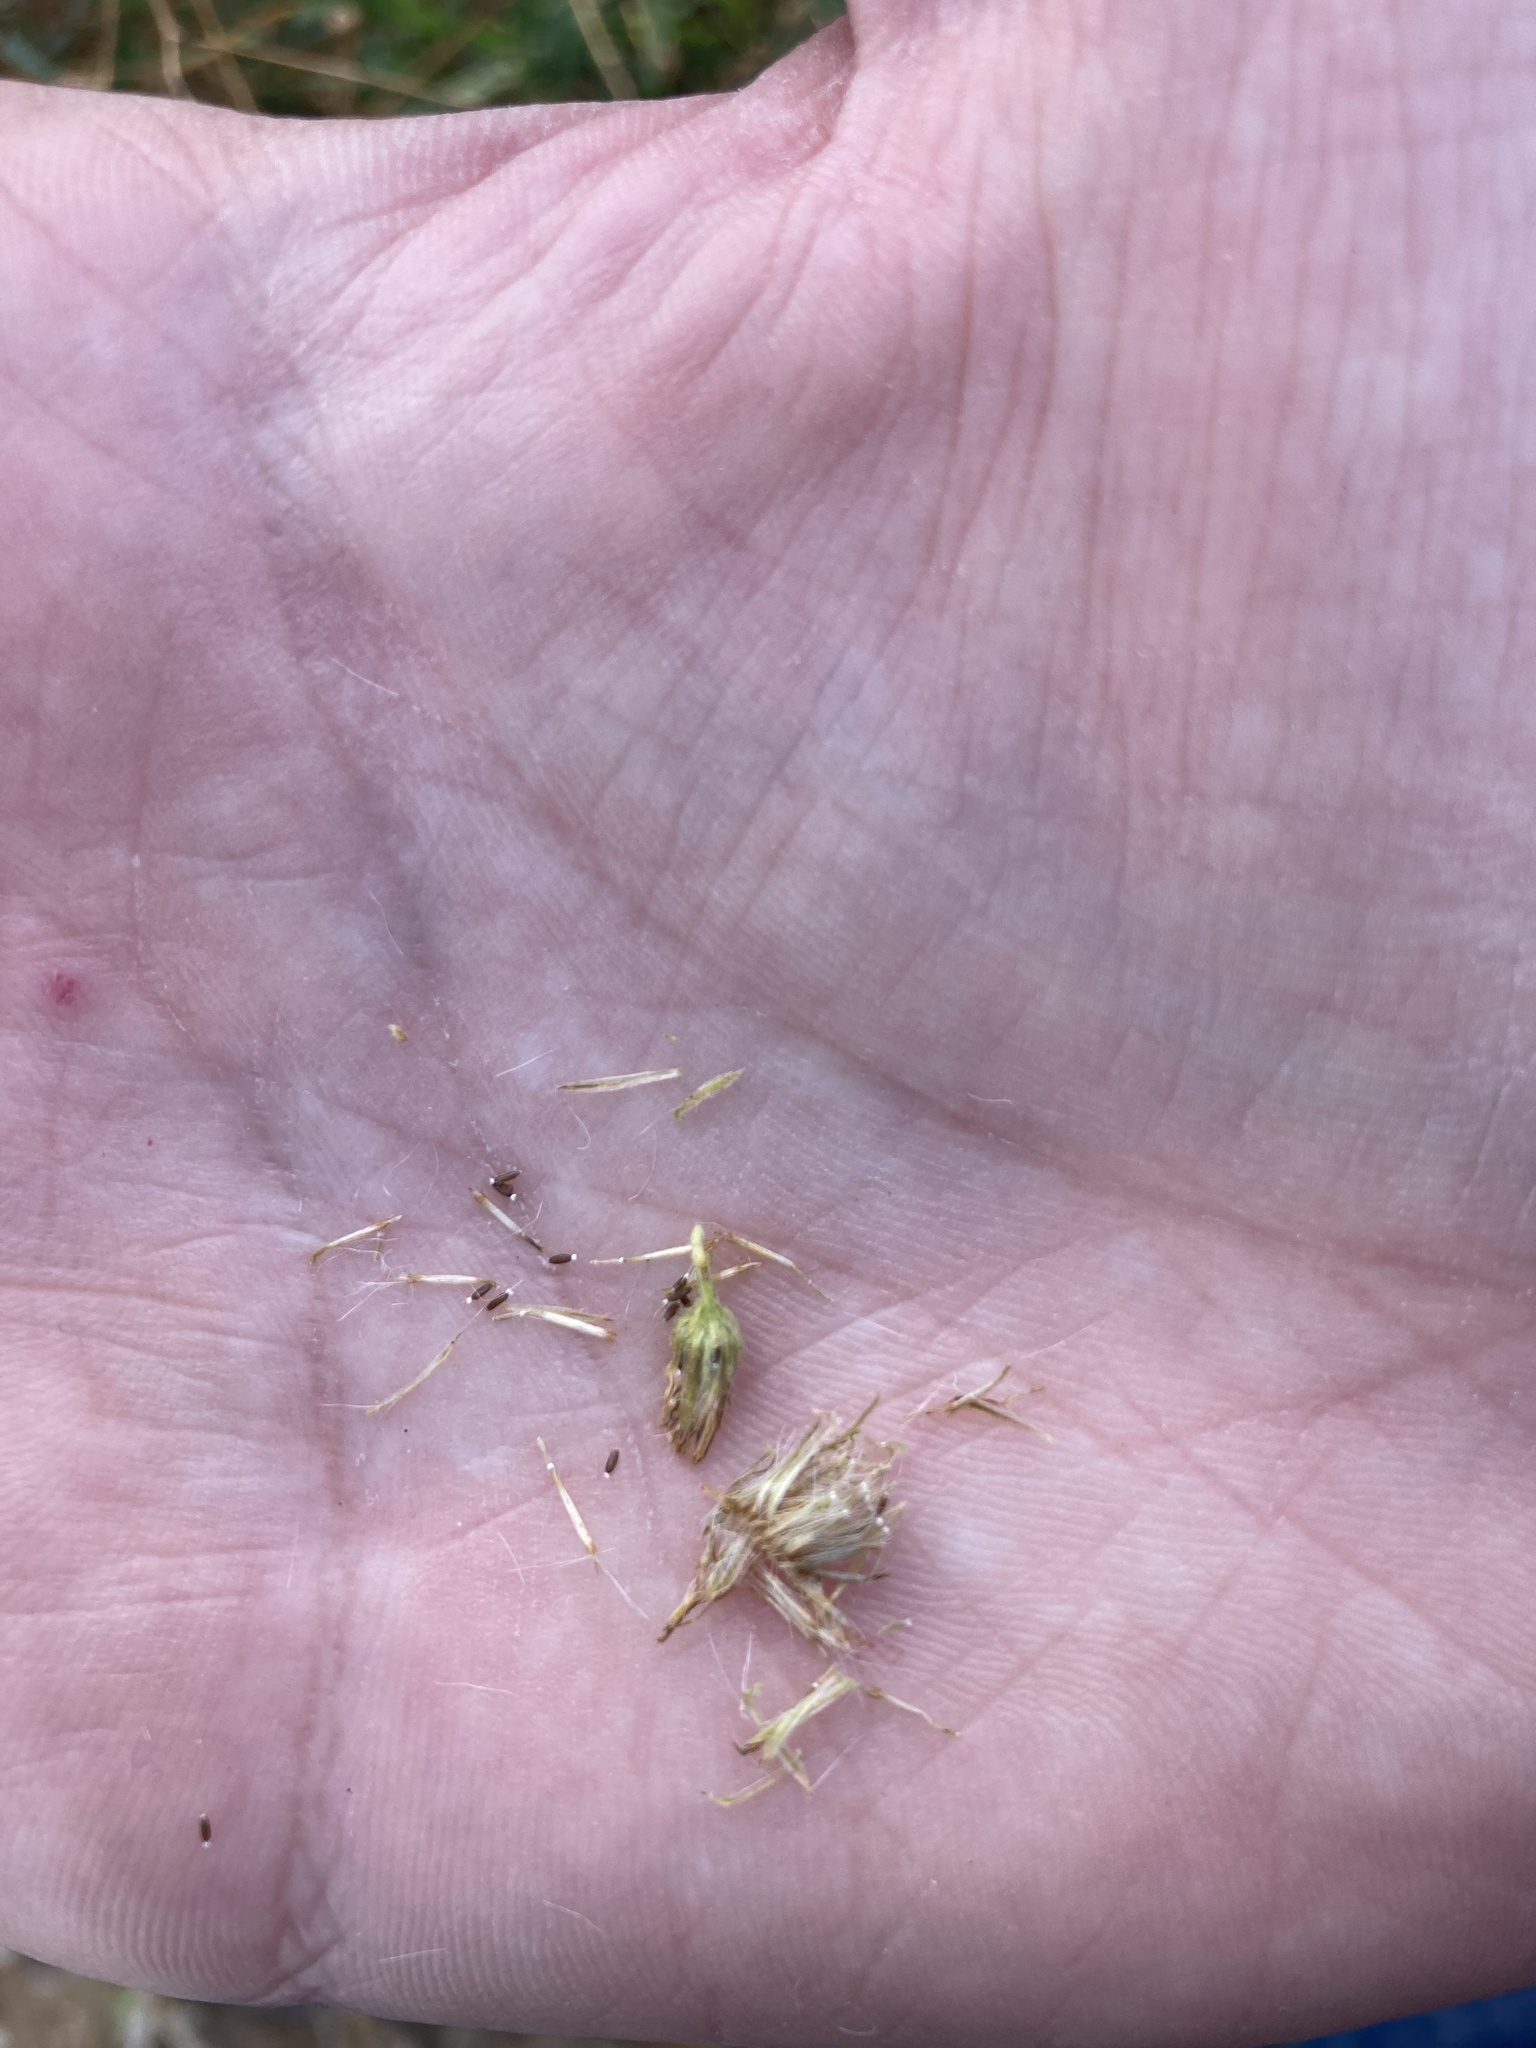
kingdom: Plantae
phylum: Tracheophyta
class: Magnoliopsida
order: Asterales
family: Asteraceae
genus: Pulicaria
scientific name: Pulicaria paludosa
